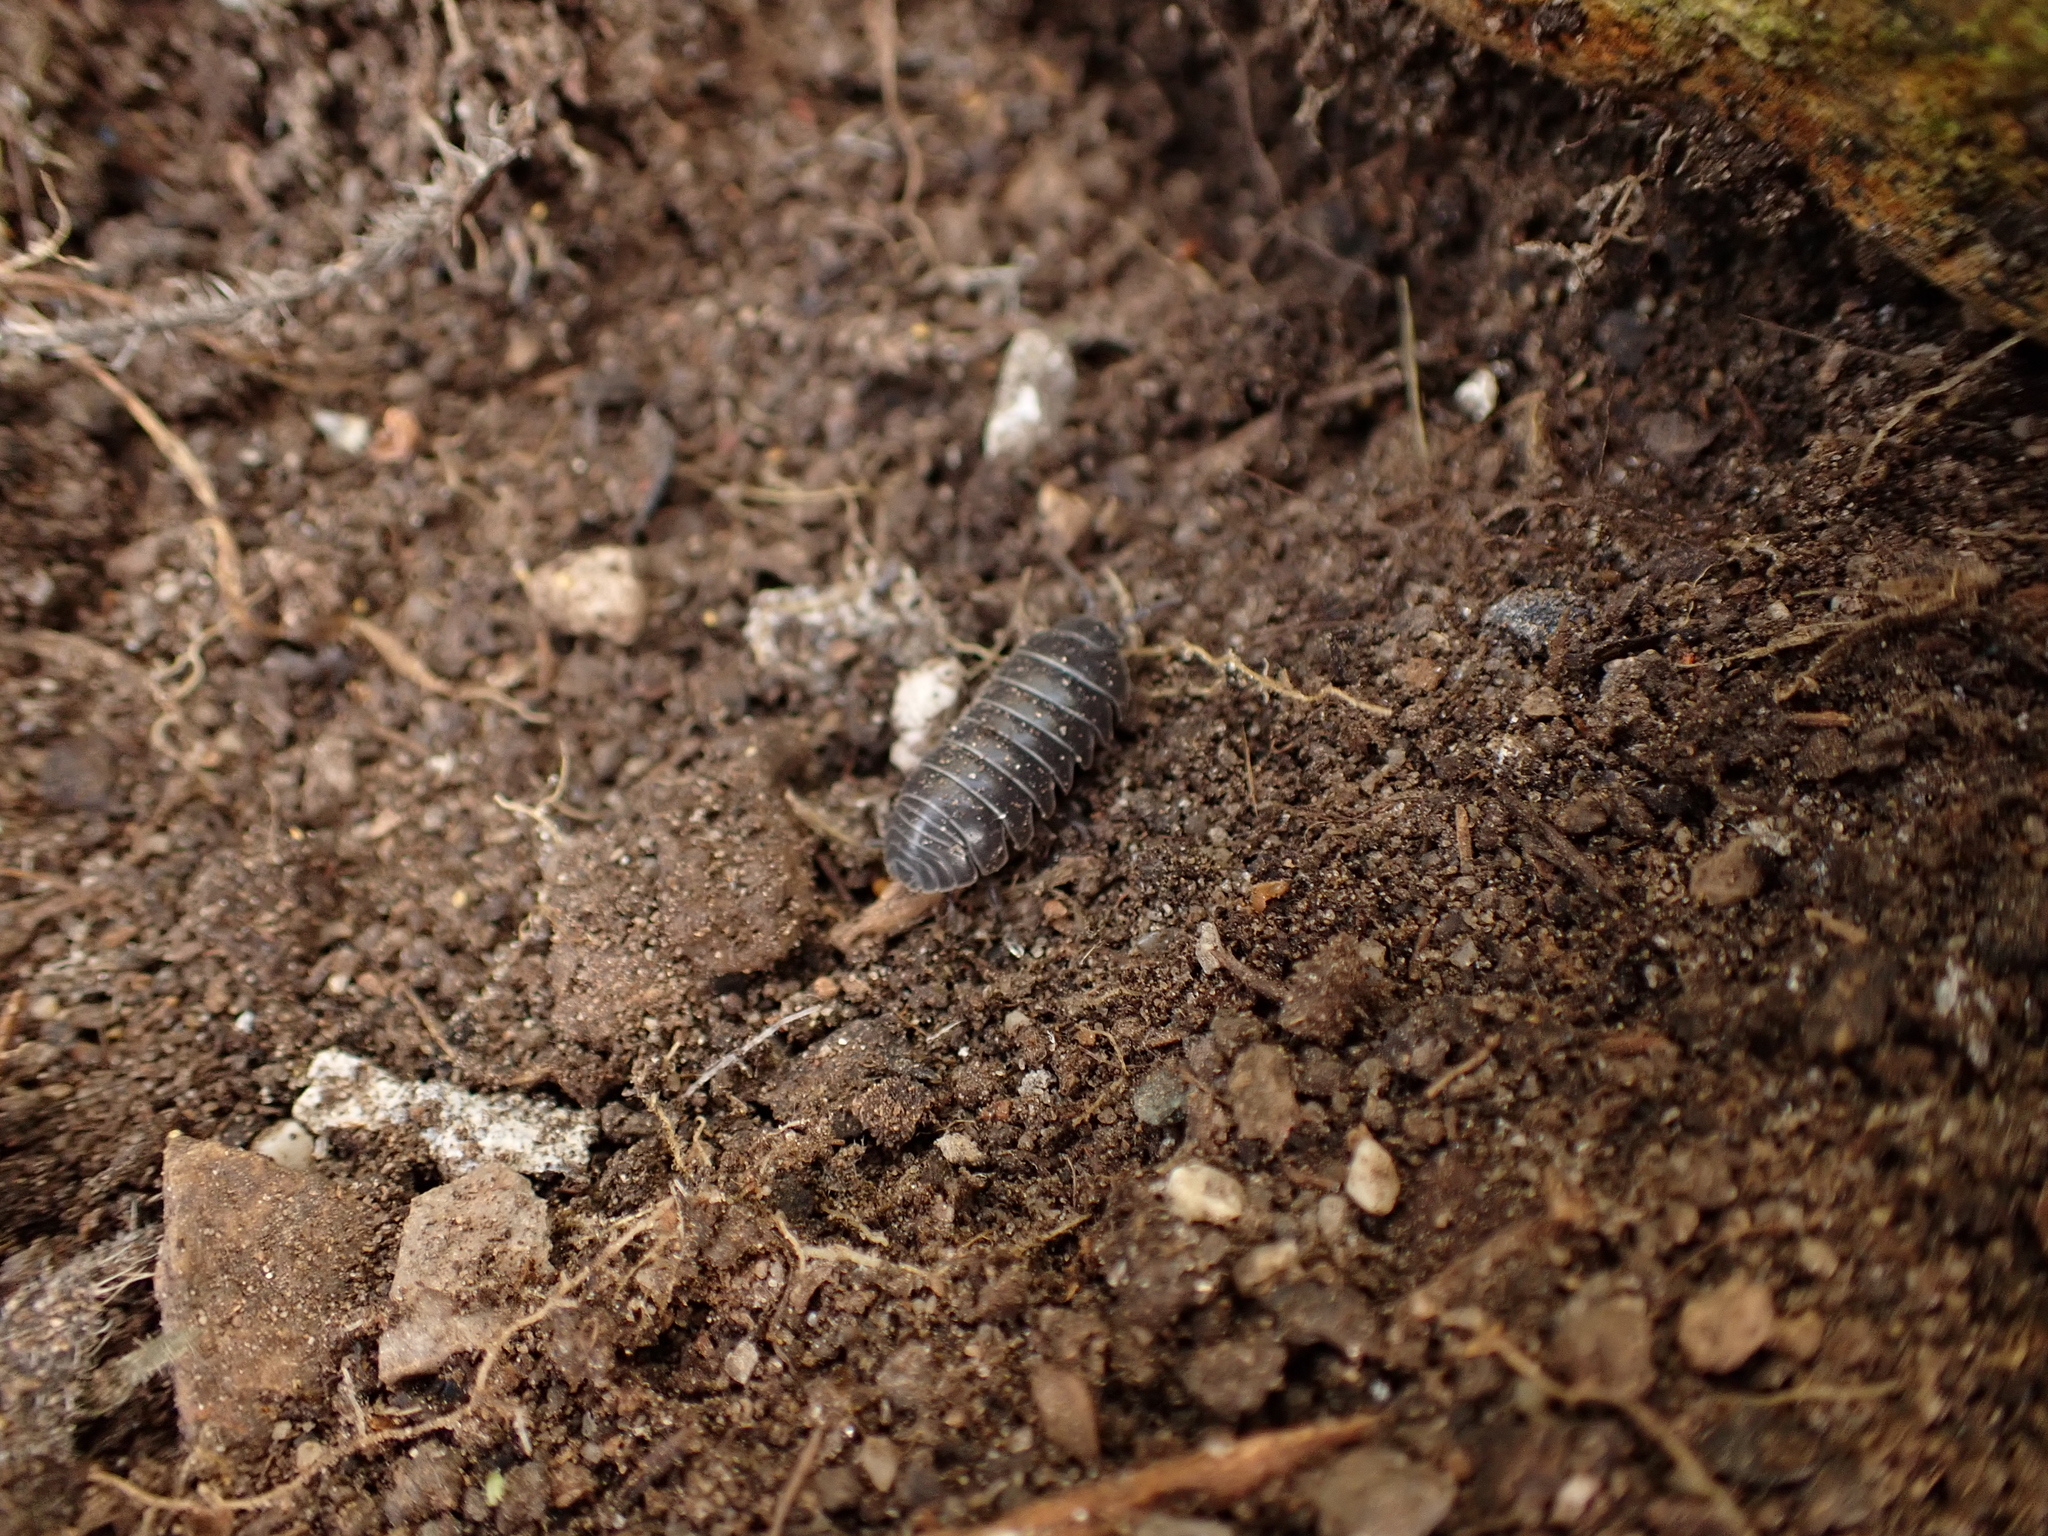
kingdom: Animalia
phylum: Arthropoda
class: Malacostraca
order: Isopoda
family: Armadillidiidae
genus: Armadillidium
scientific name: Armadillidium vulgare
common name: Common pill woodlouse
